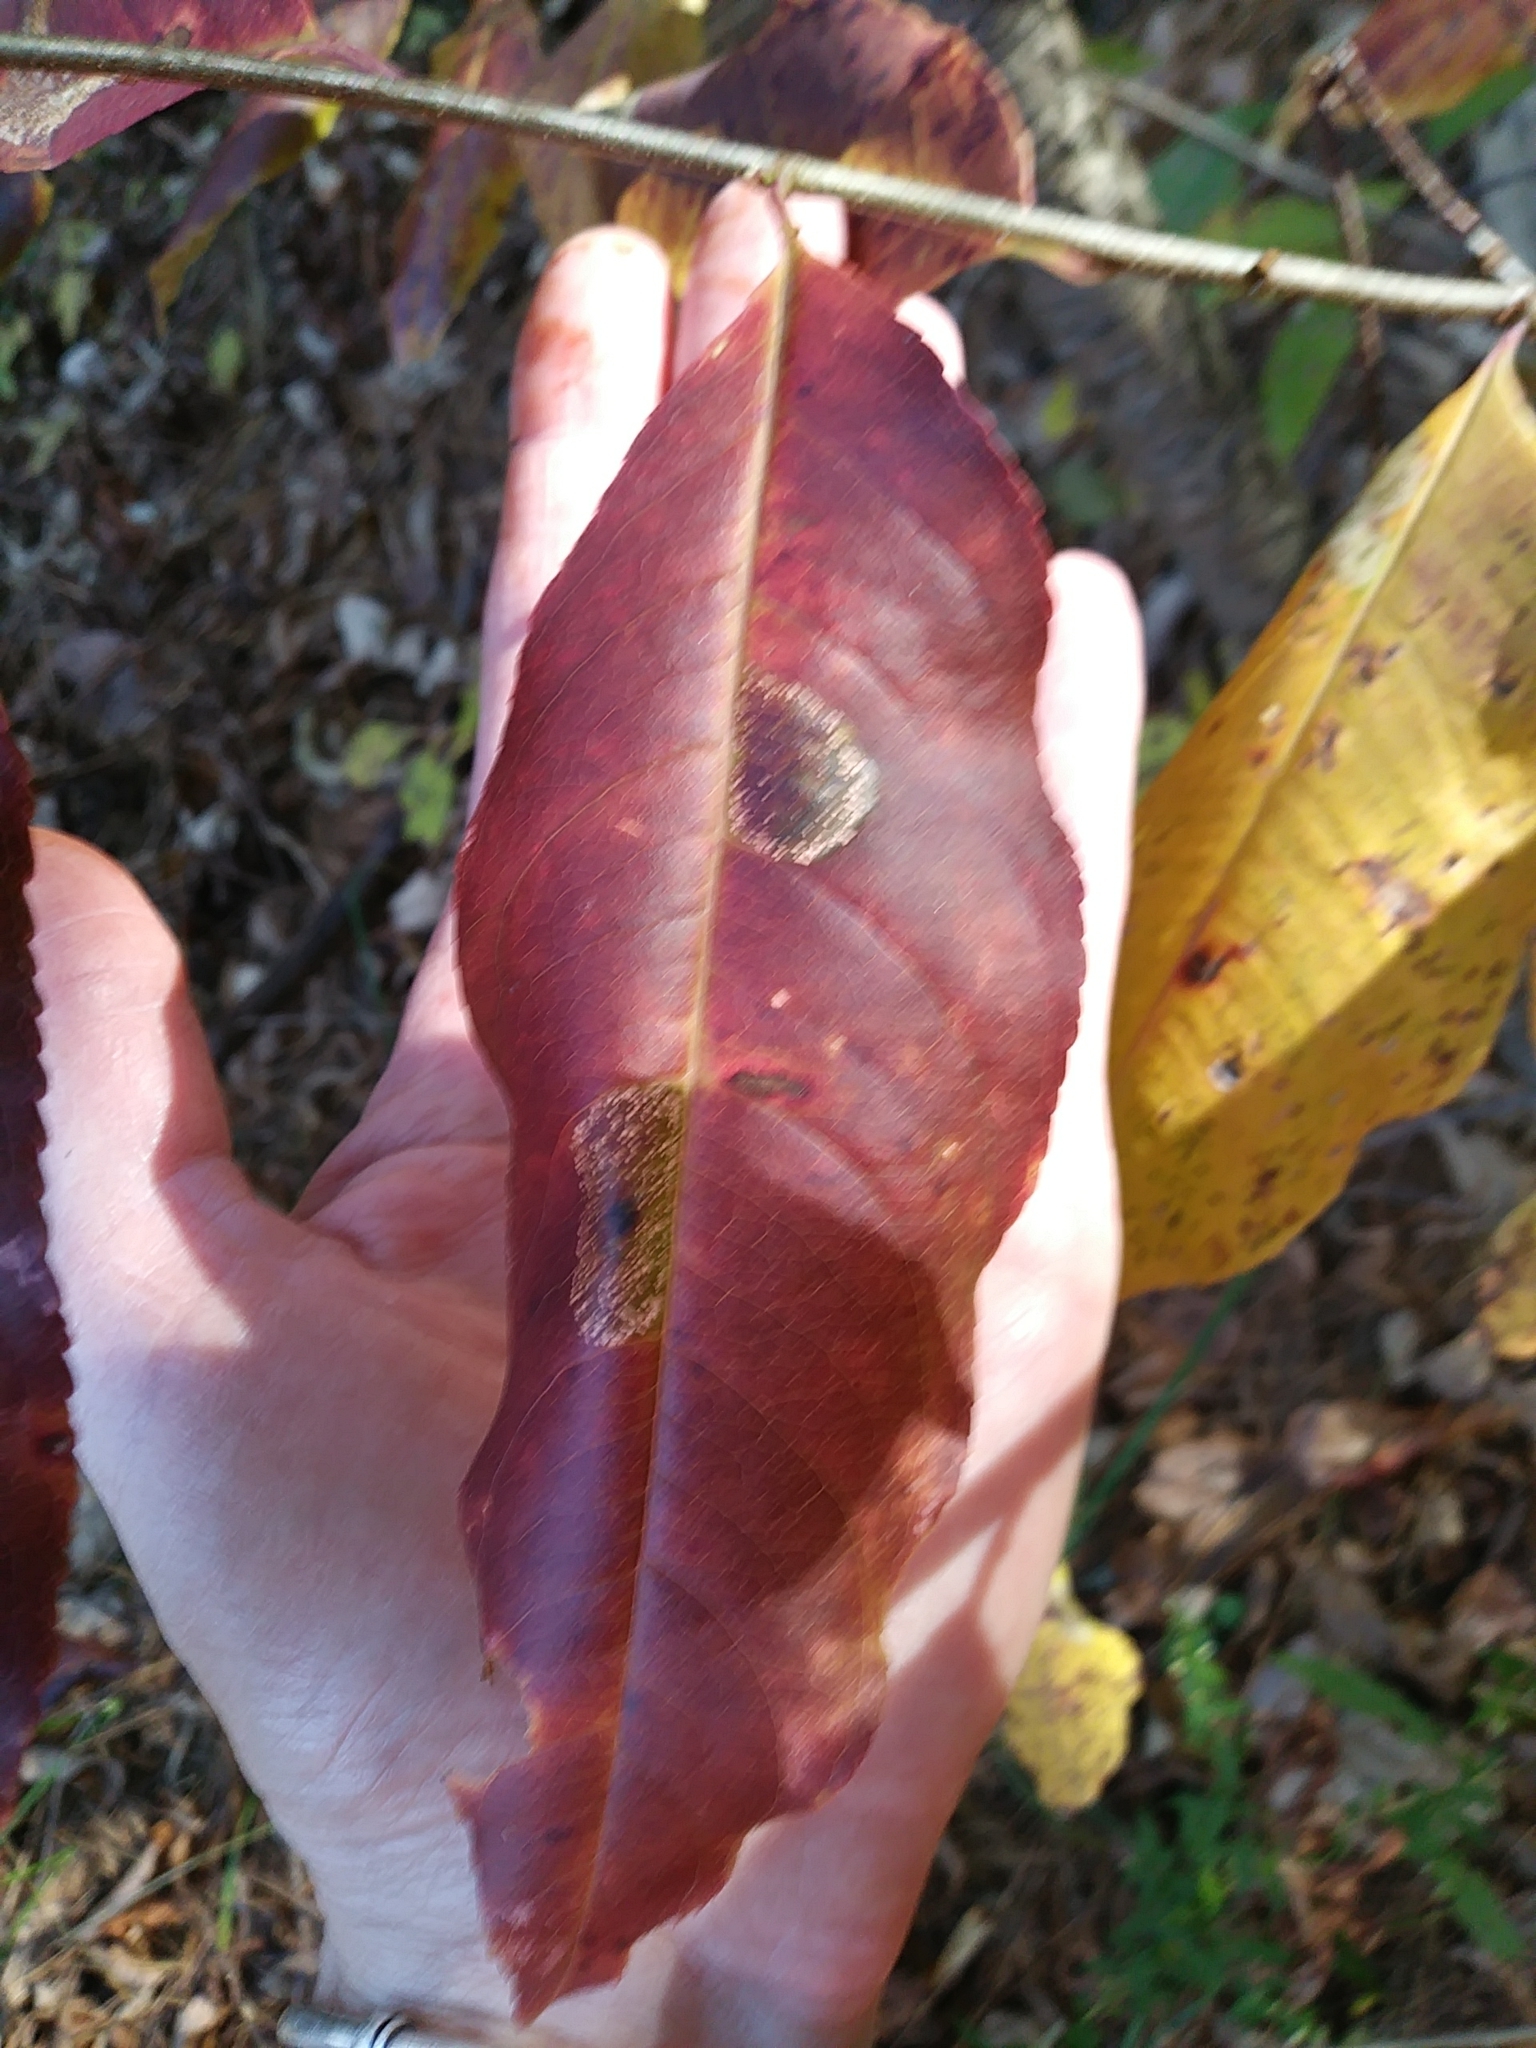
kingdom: Plantae
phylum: Tracheophyta
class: Magnoliopsida
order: Rosales
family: Rosaceae
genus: Prunus
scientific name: Prunus serotina
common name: Black cherry
